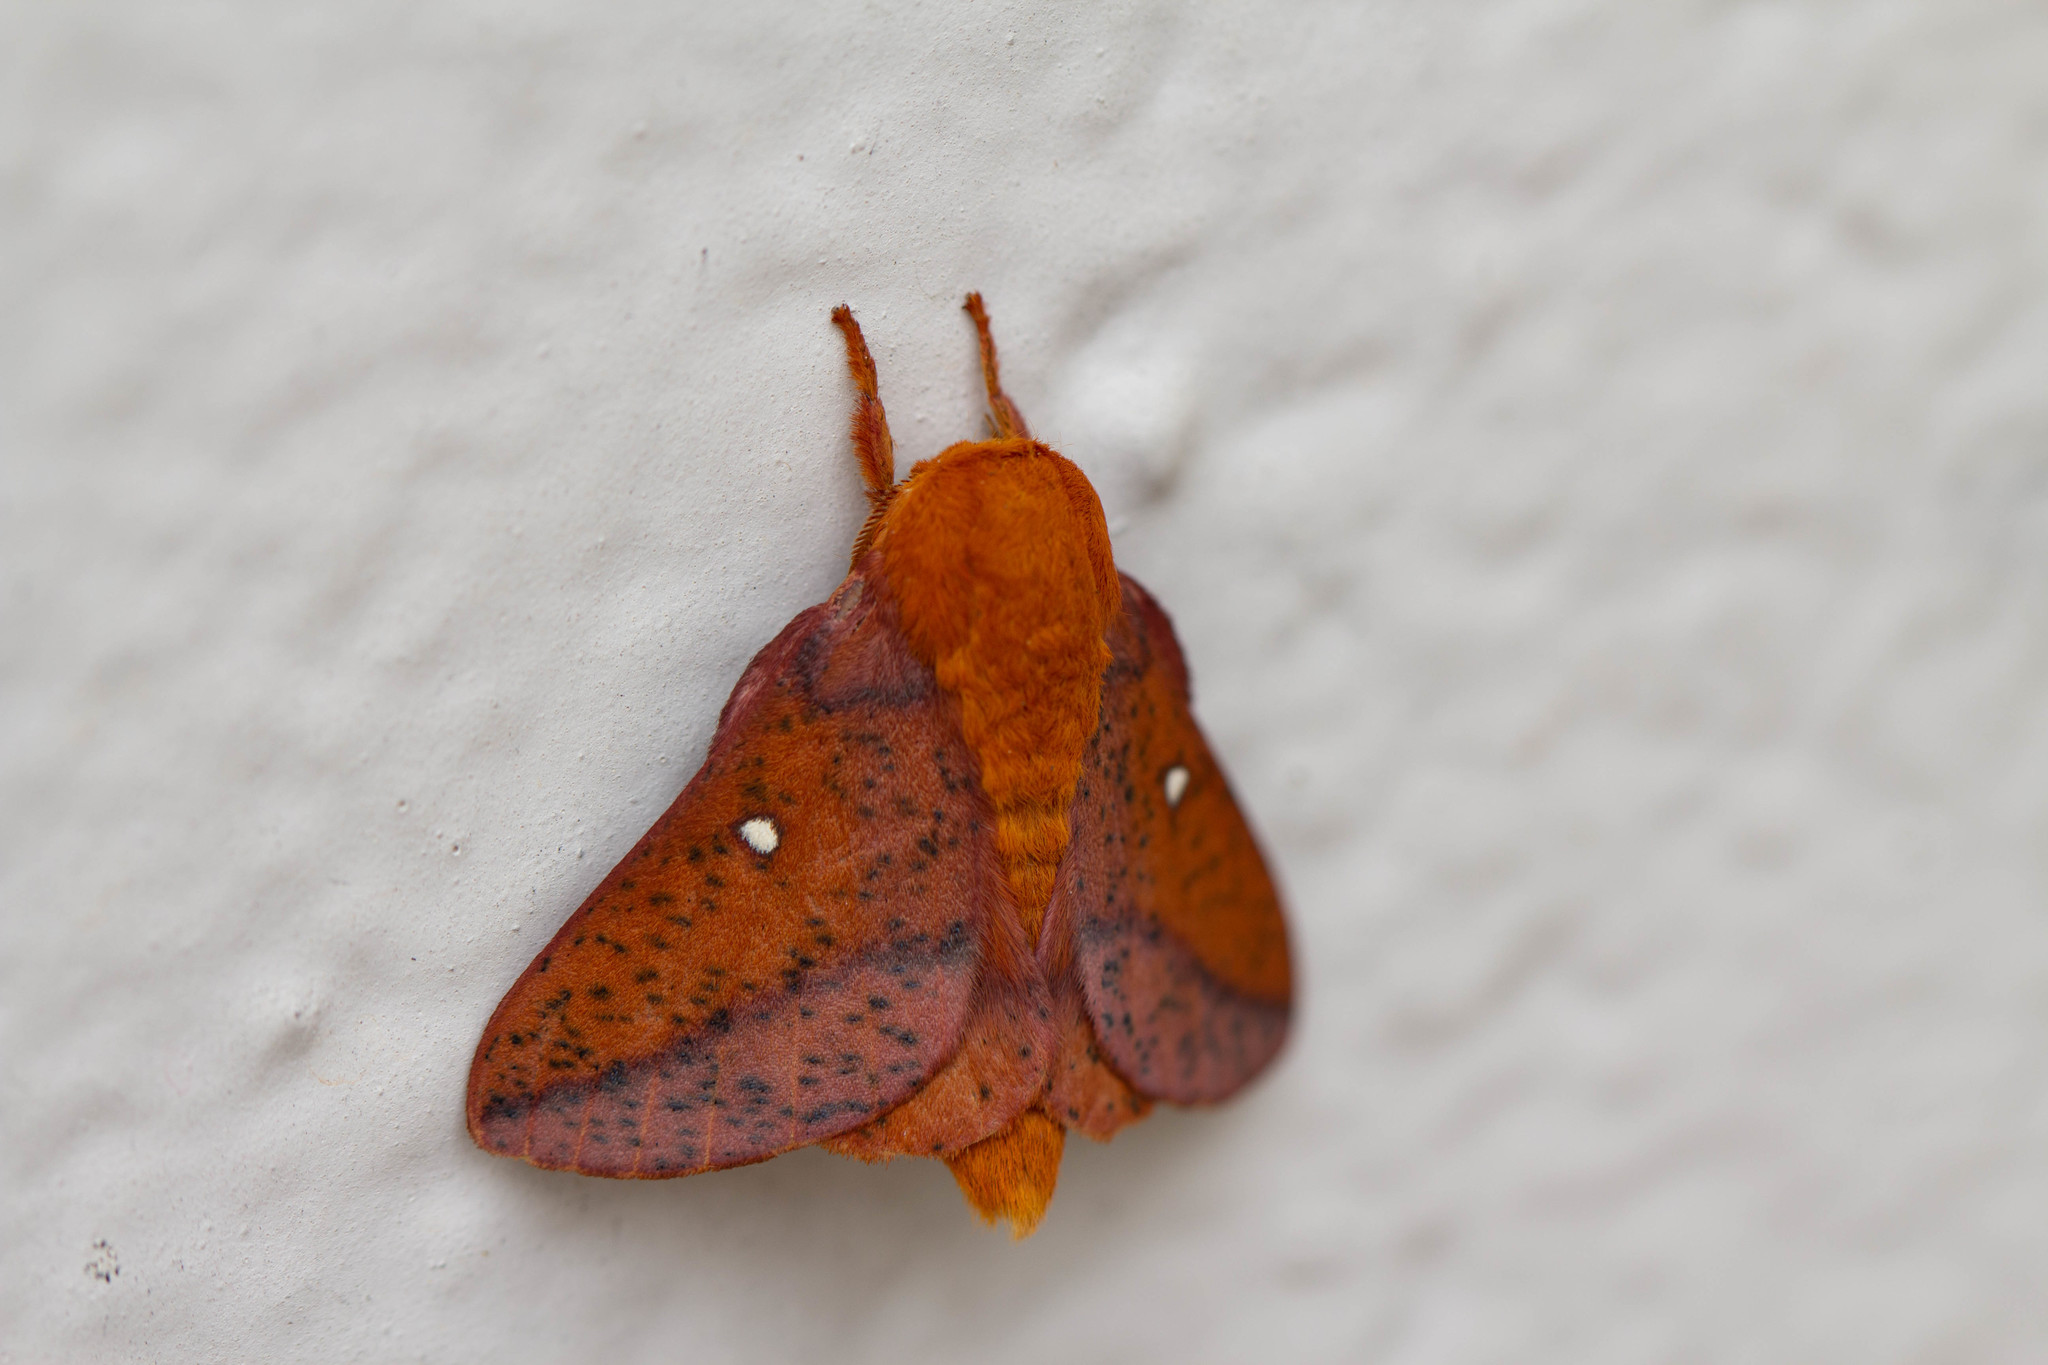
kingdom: Animalia
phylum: Arthropoda
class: Insecta
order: Lepidoptera
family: Saturniidae
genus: Anisota
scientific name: Anisota stigma
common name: Spiny oakworm moth
